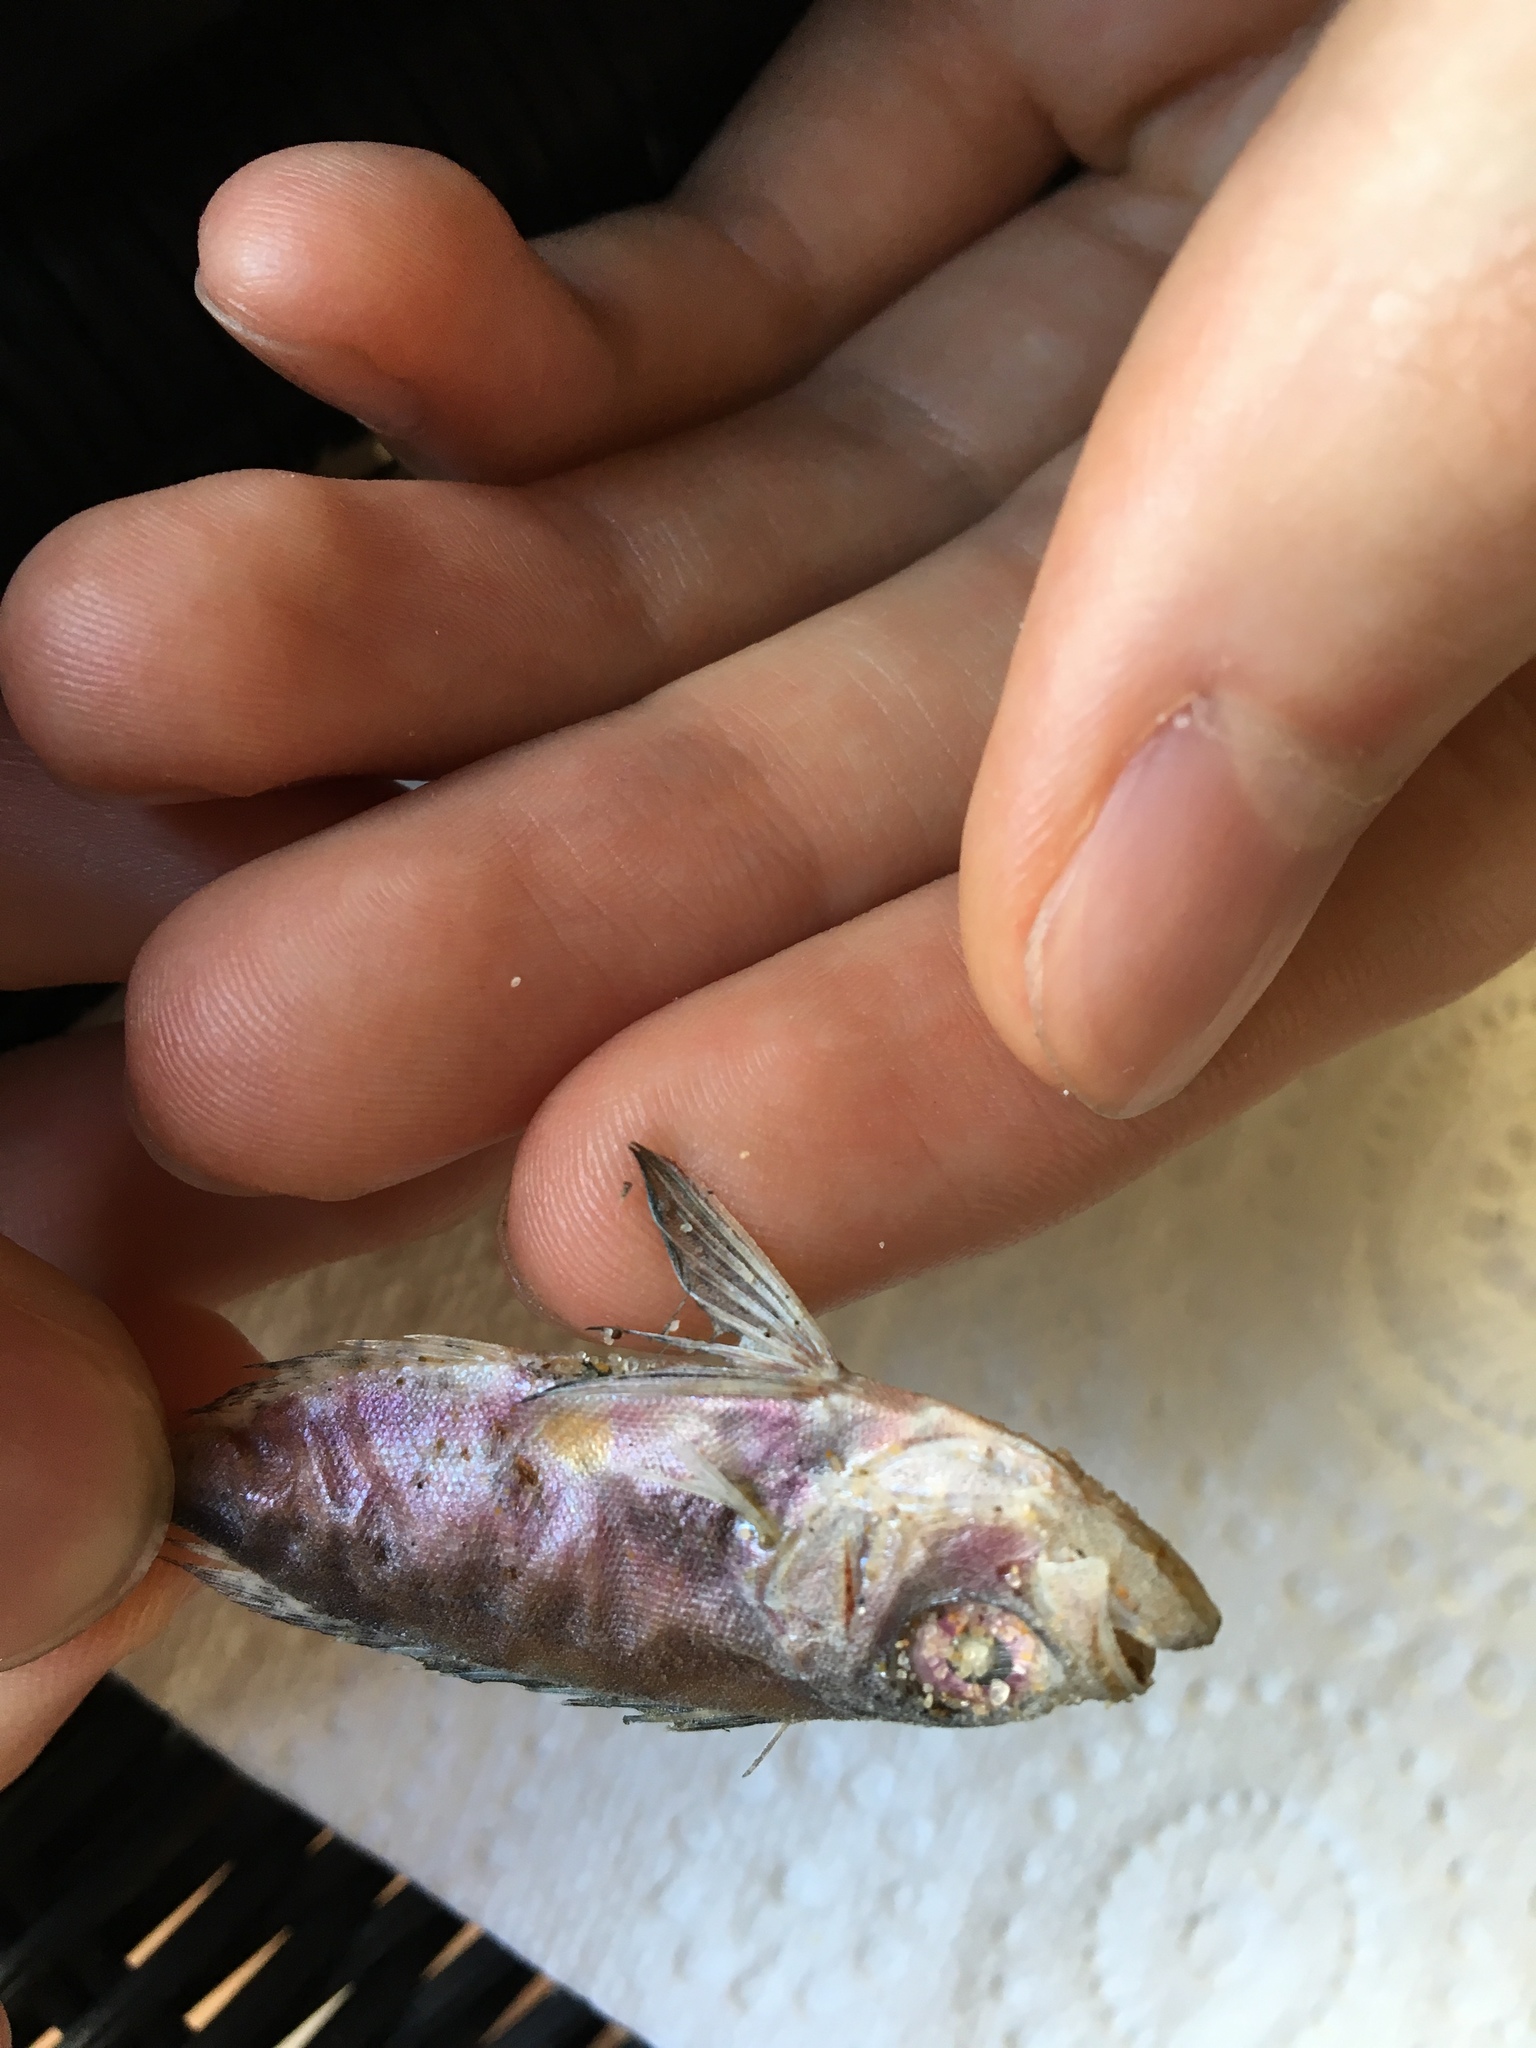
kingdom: Animalia
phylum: Chordata
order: Perciformes
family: Priacanthidae
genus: Heteropriacanthus
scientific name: Heteropriacanthus cruentatus
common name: Glasseye
